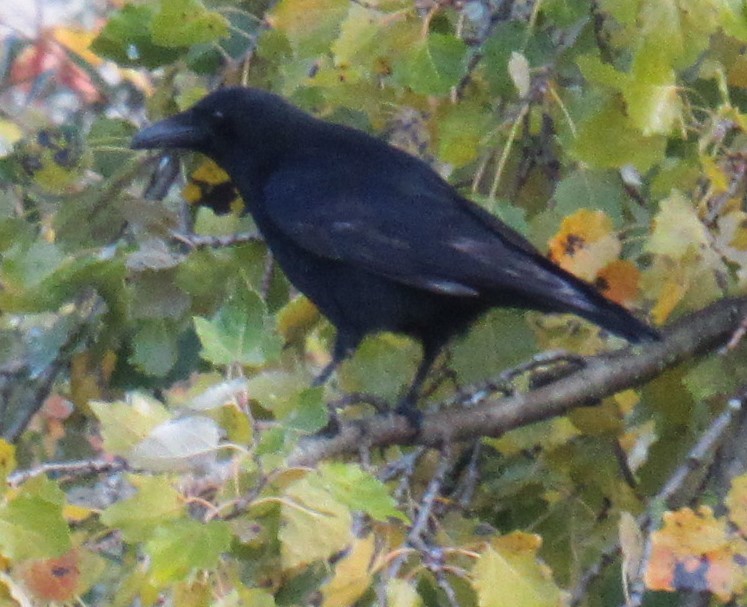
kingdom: Animalia
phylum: Chordata
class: Aves
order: Passeriformes
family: Corvidae
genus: Corvus
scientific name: Corvus corone
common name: Carrion crow
